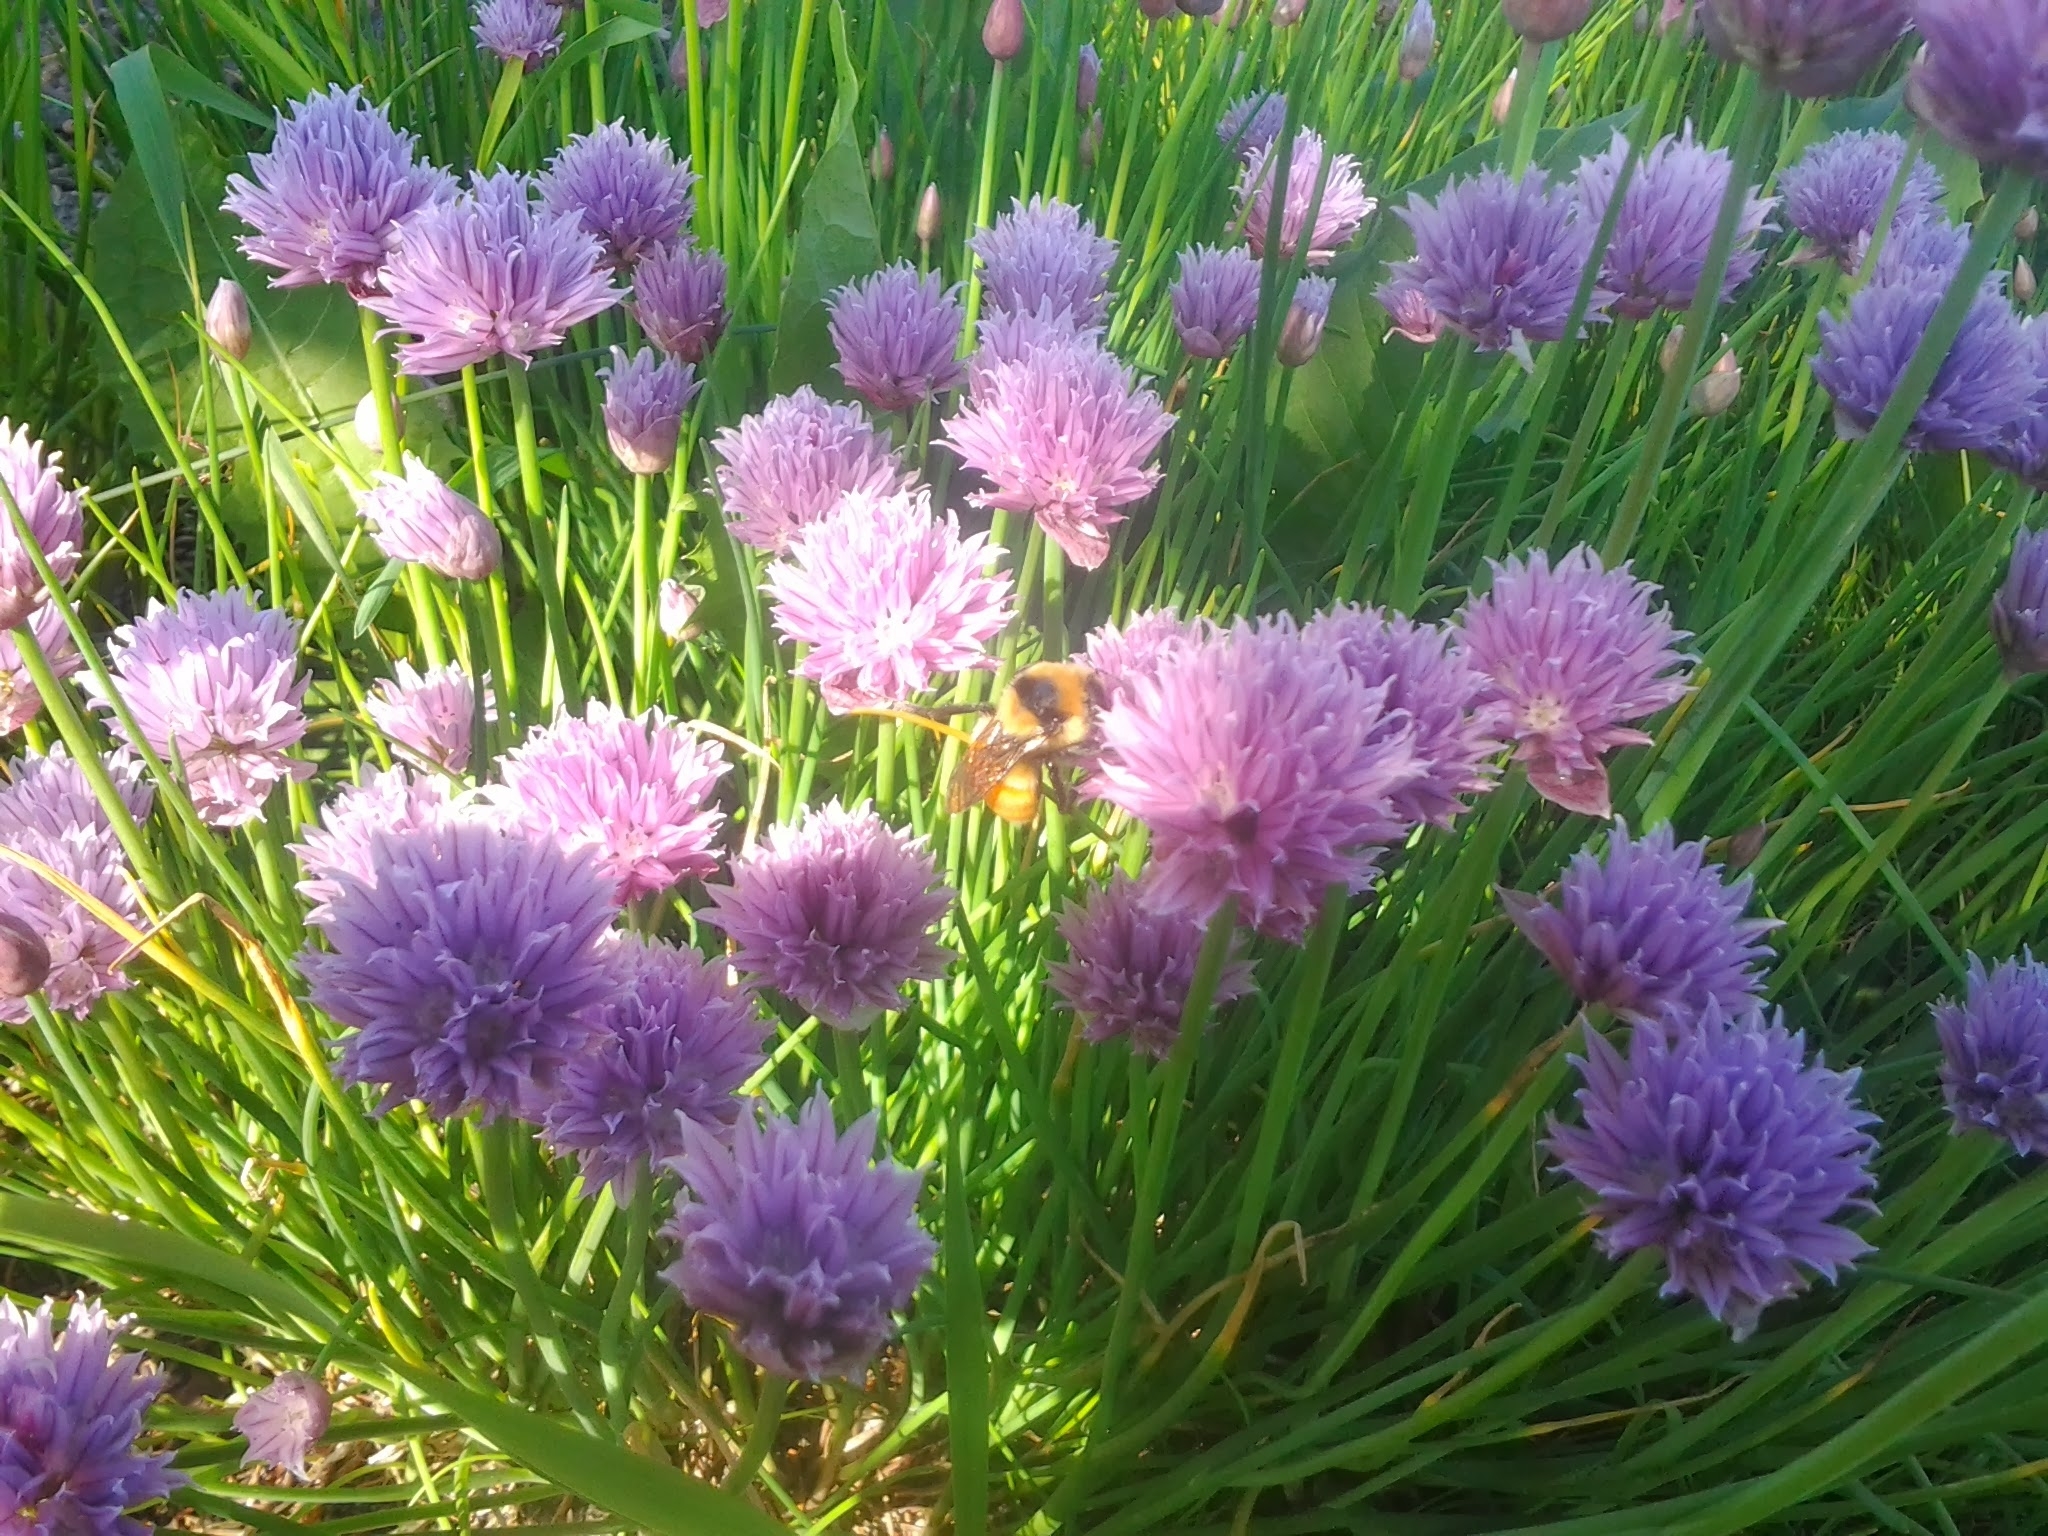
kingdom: Animalia
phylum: Arthropoda
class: Insecta
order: Hymenoptera
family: Apidae
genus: Bombus
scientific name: Bombus huntii
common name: Hunt bumble bee
